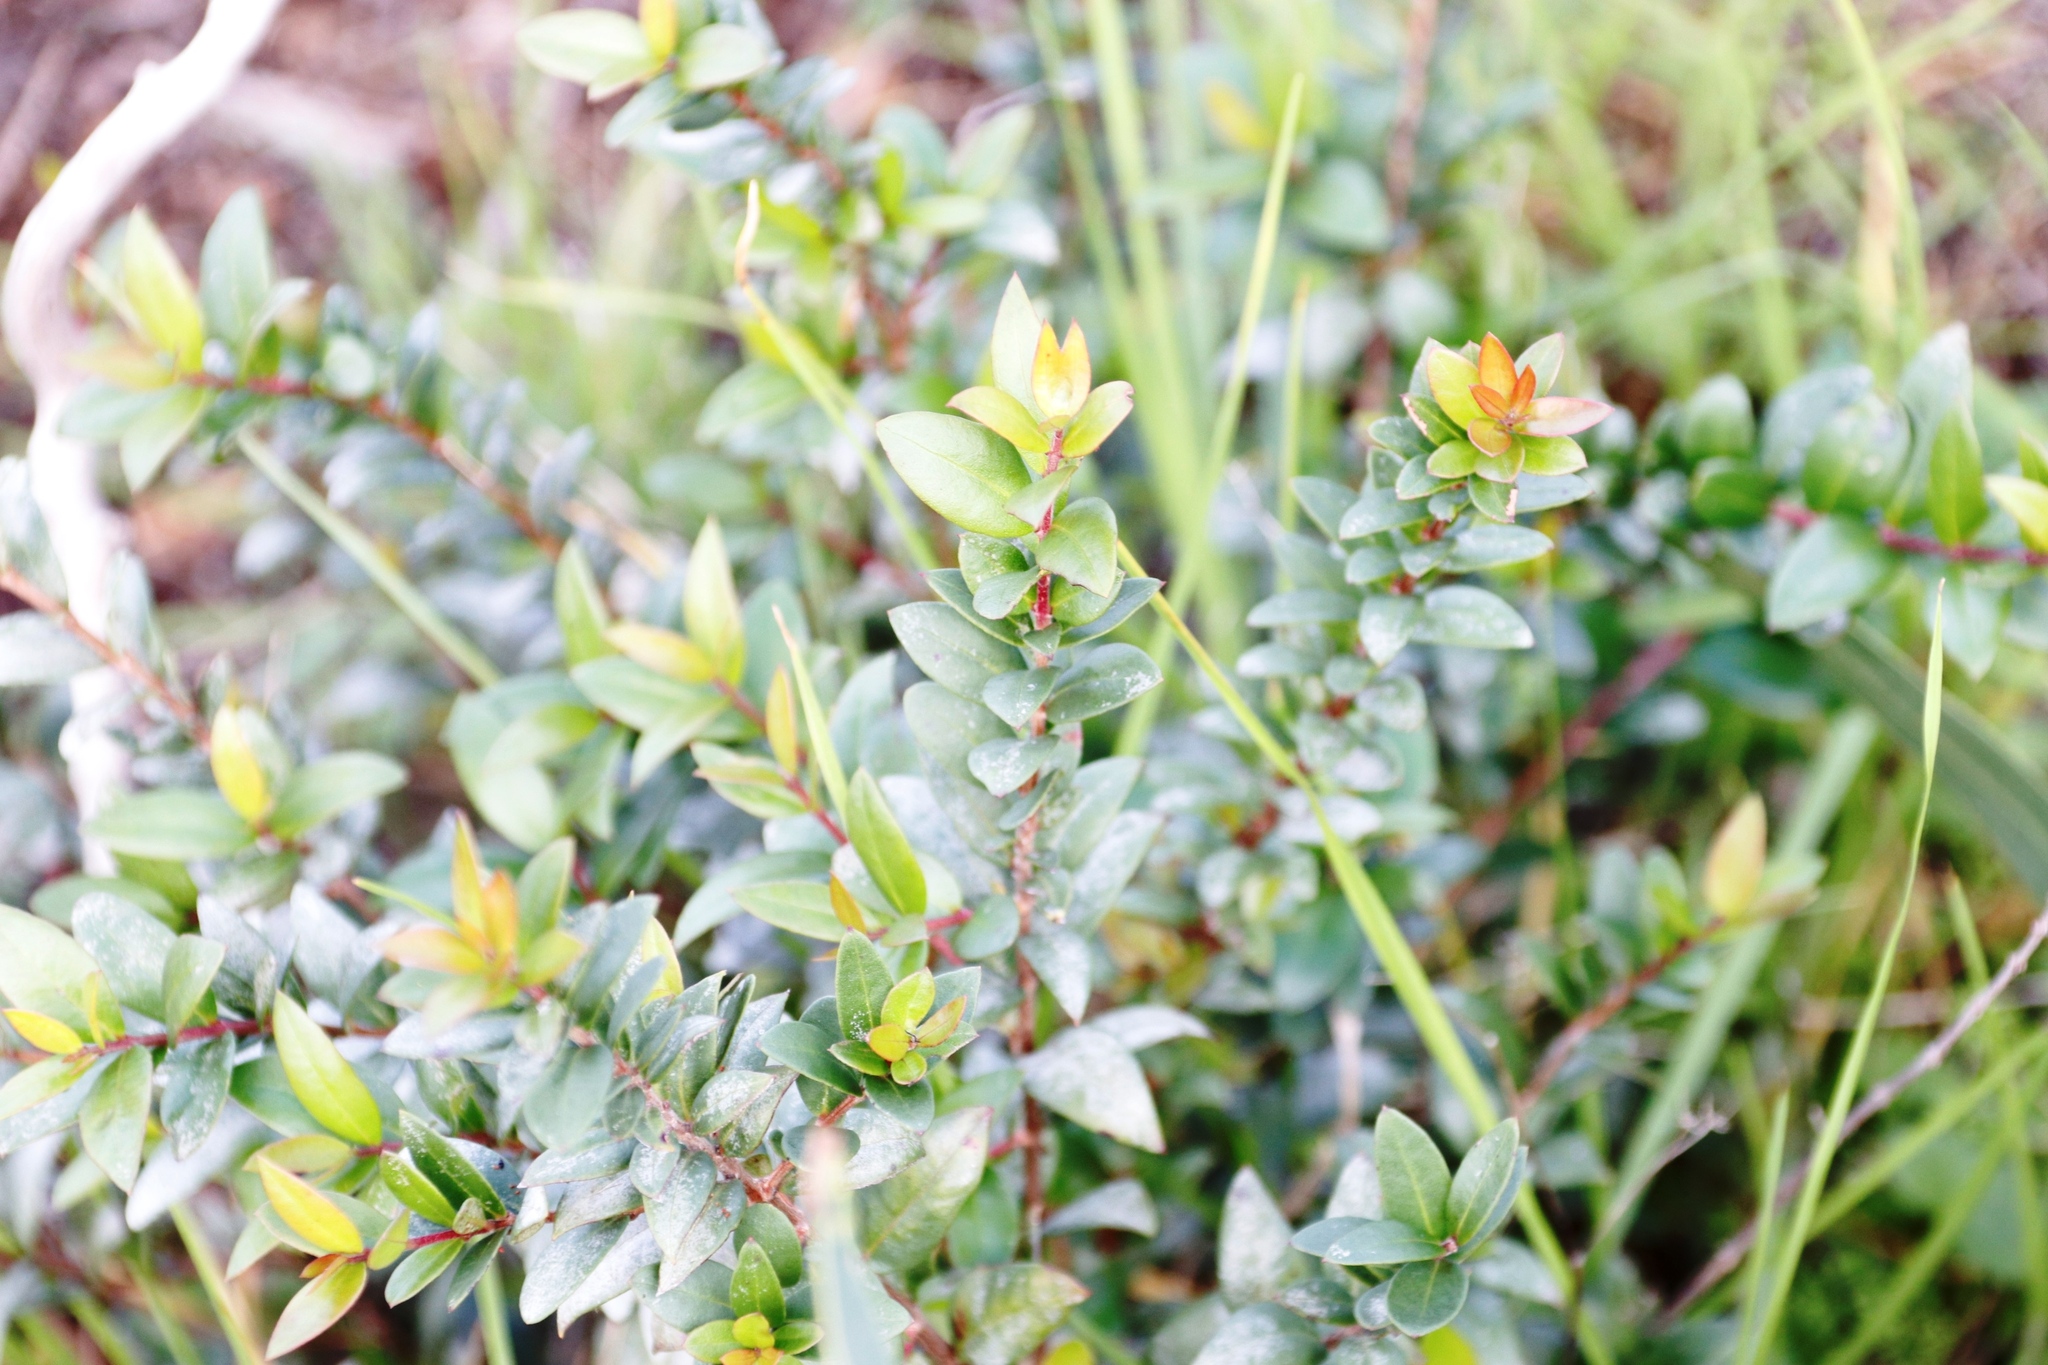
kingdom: Plantae
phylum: Tracheophyta
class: Magnoliopsida
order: Ericales
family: Ebenaceae
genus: Diospyros
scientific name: Diospyros glabra
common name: Fynbos star apple
